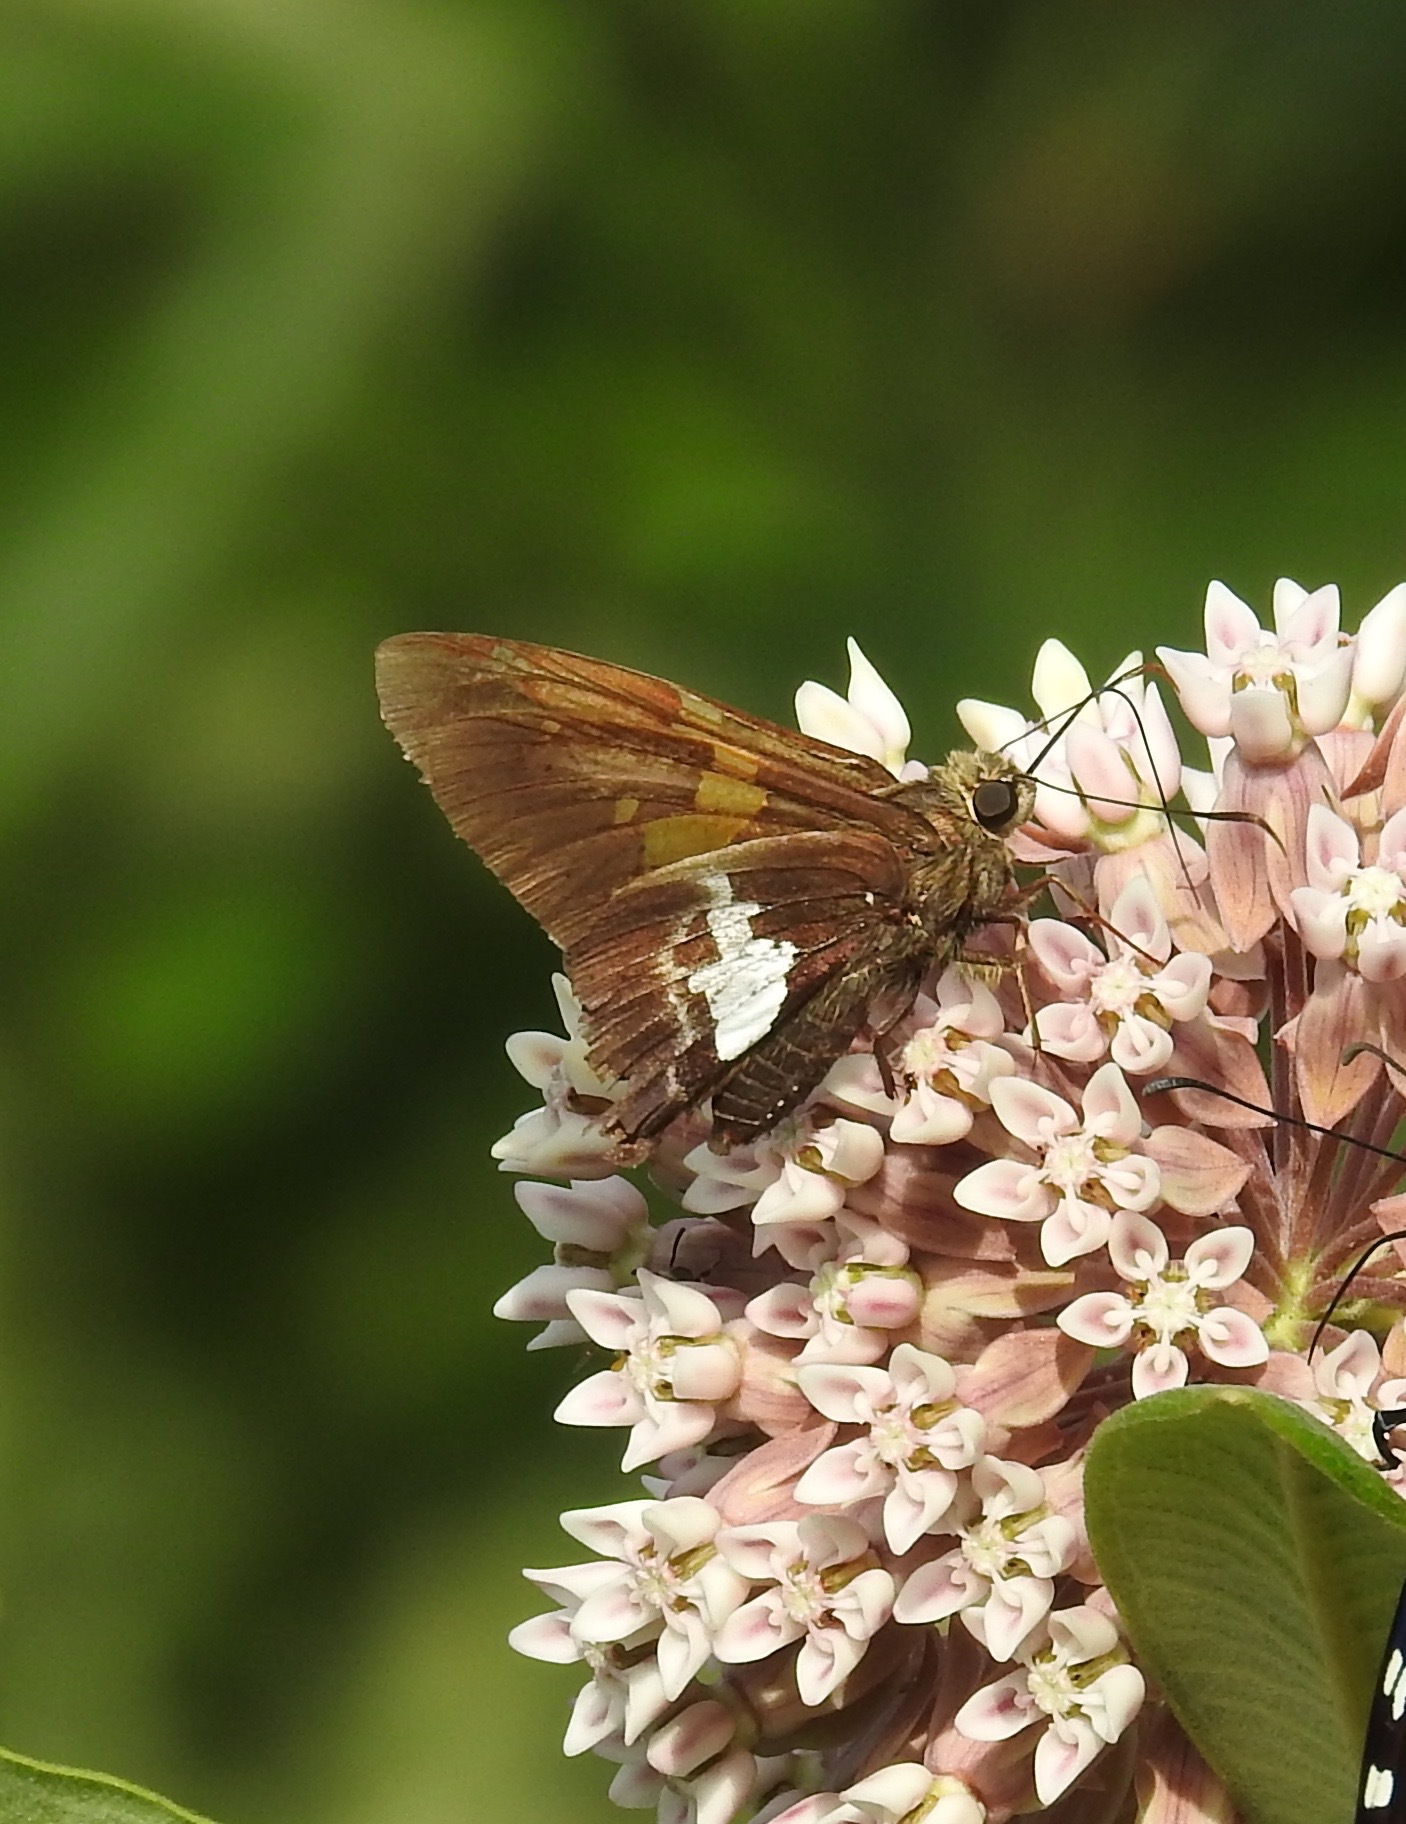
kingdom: Animalia
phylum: Arthropoda
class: Insecta
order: Lepidoptera
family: Hesperiidae
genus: Epargyreus
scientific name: Epargyreus clarus
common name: Silver-spotted skipper
